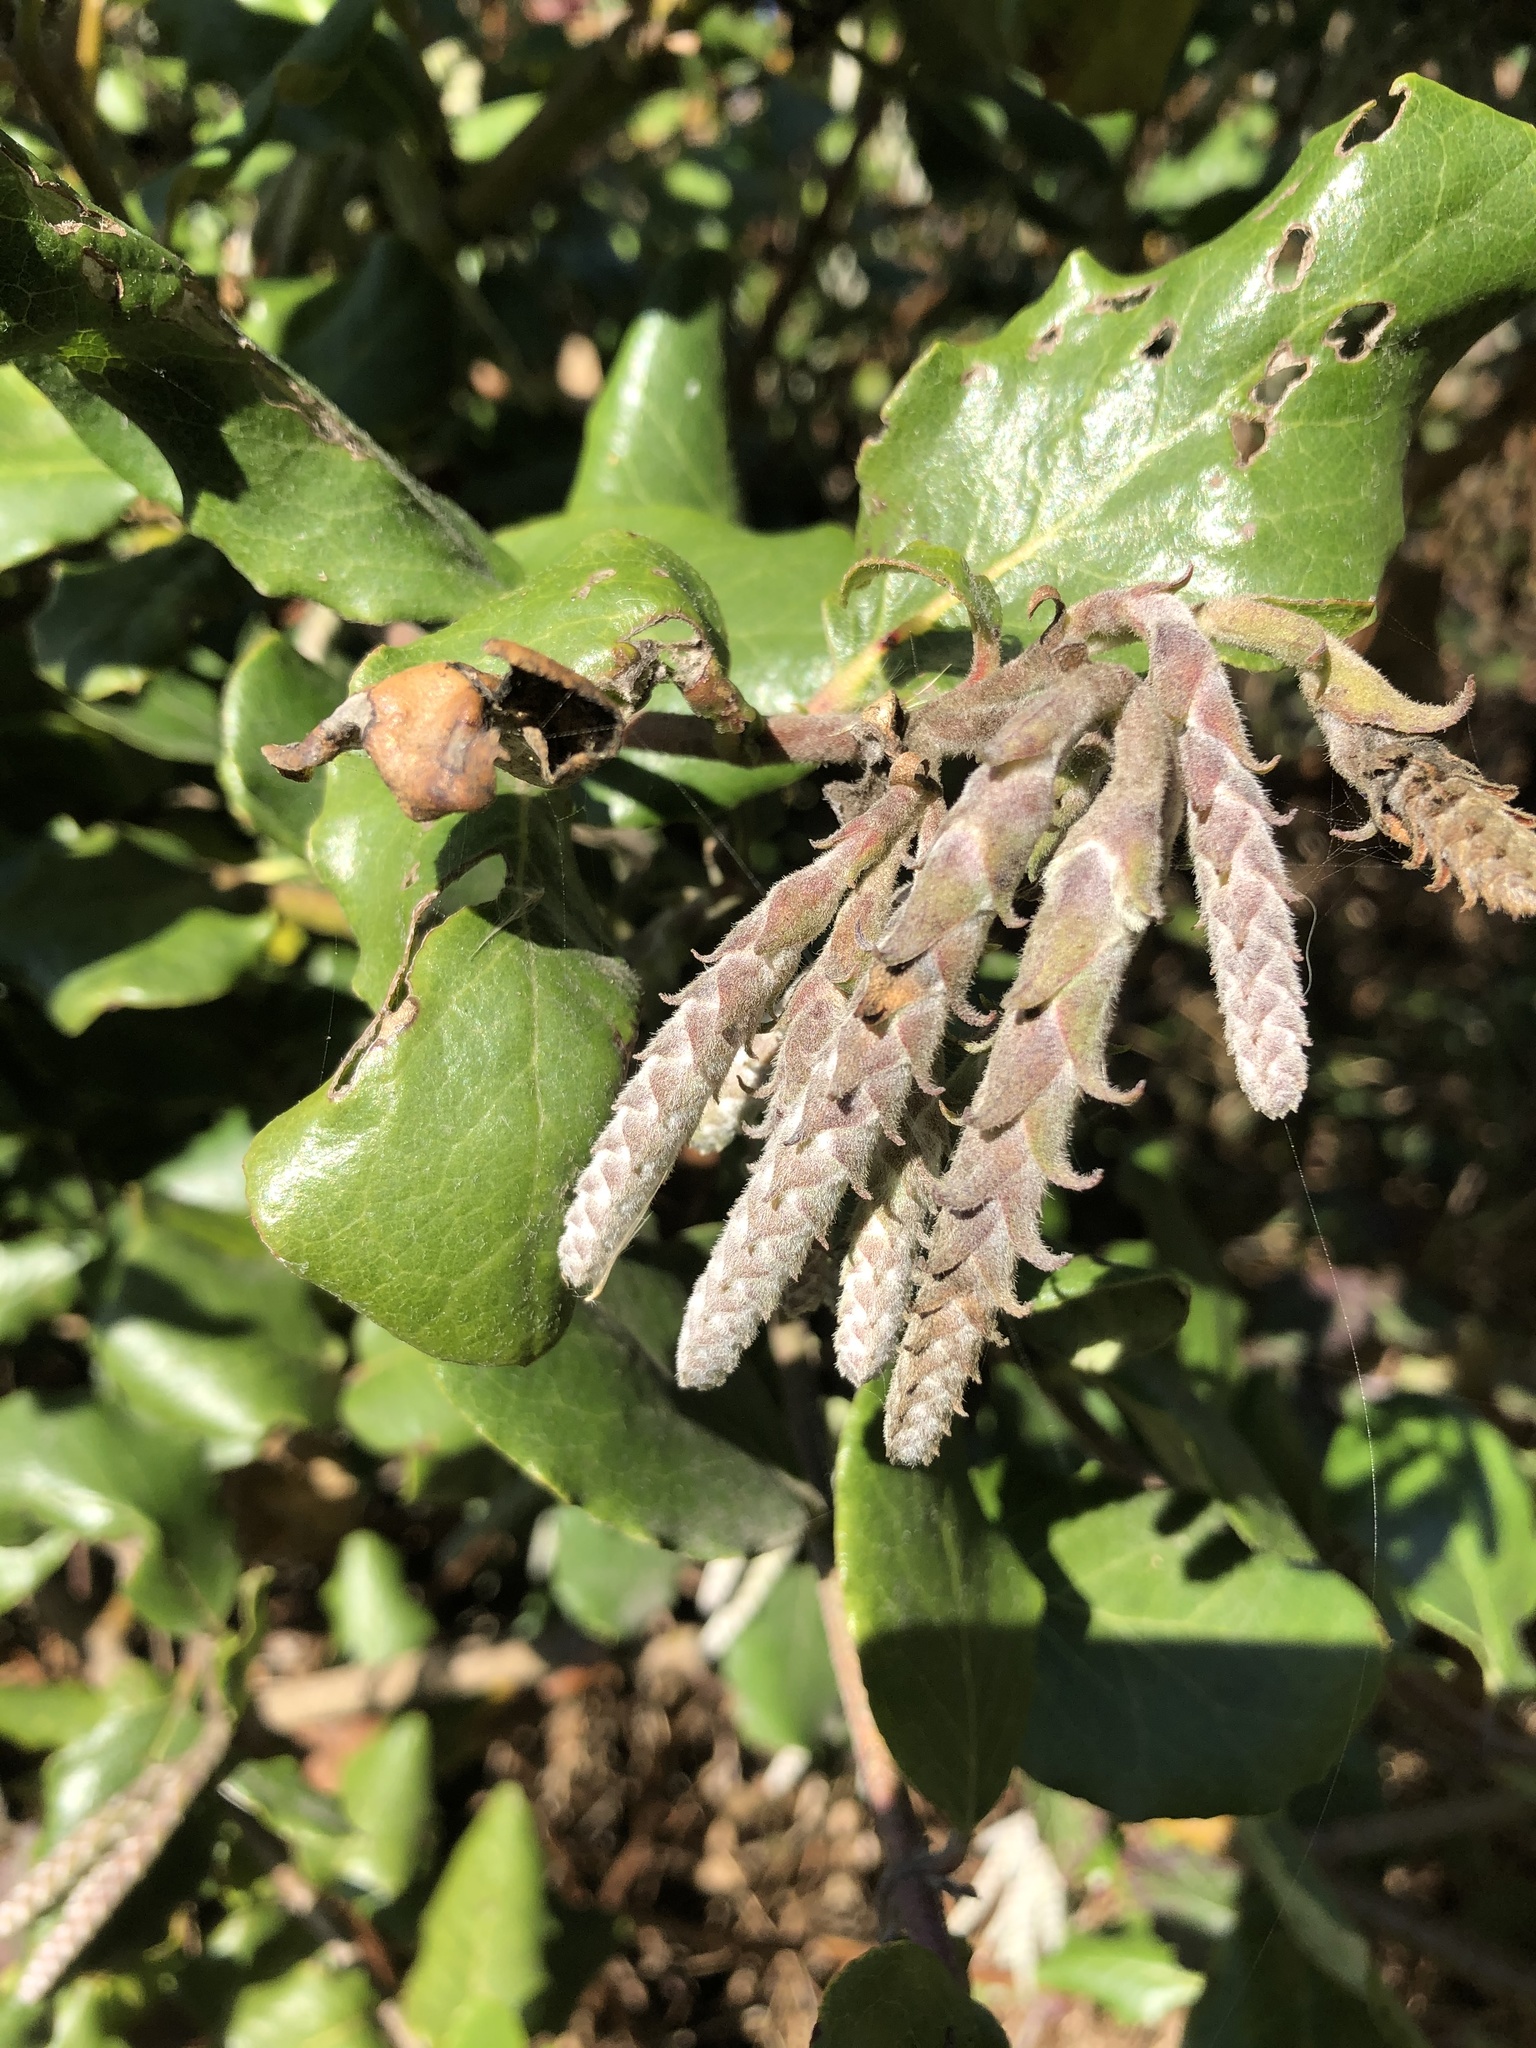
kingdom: Plantae
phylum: Tracheophyta
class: Magnoliopsida
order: Garryales
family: Garryaceae
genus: Garrya
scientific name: Garrya elliptica
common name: Silk-tassel
